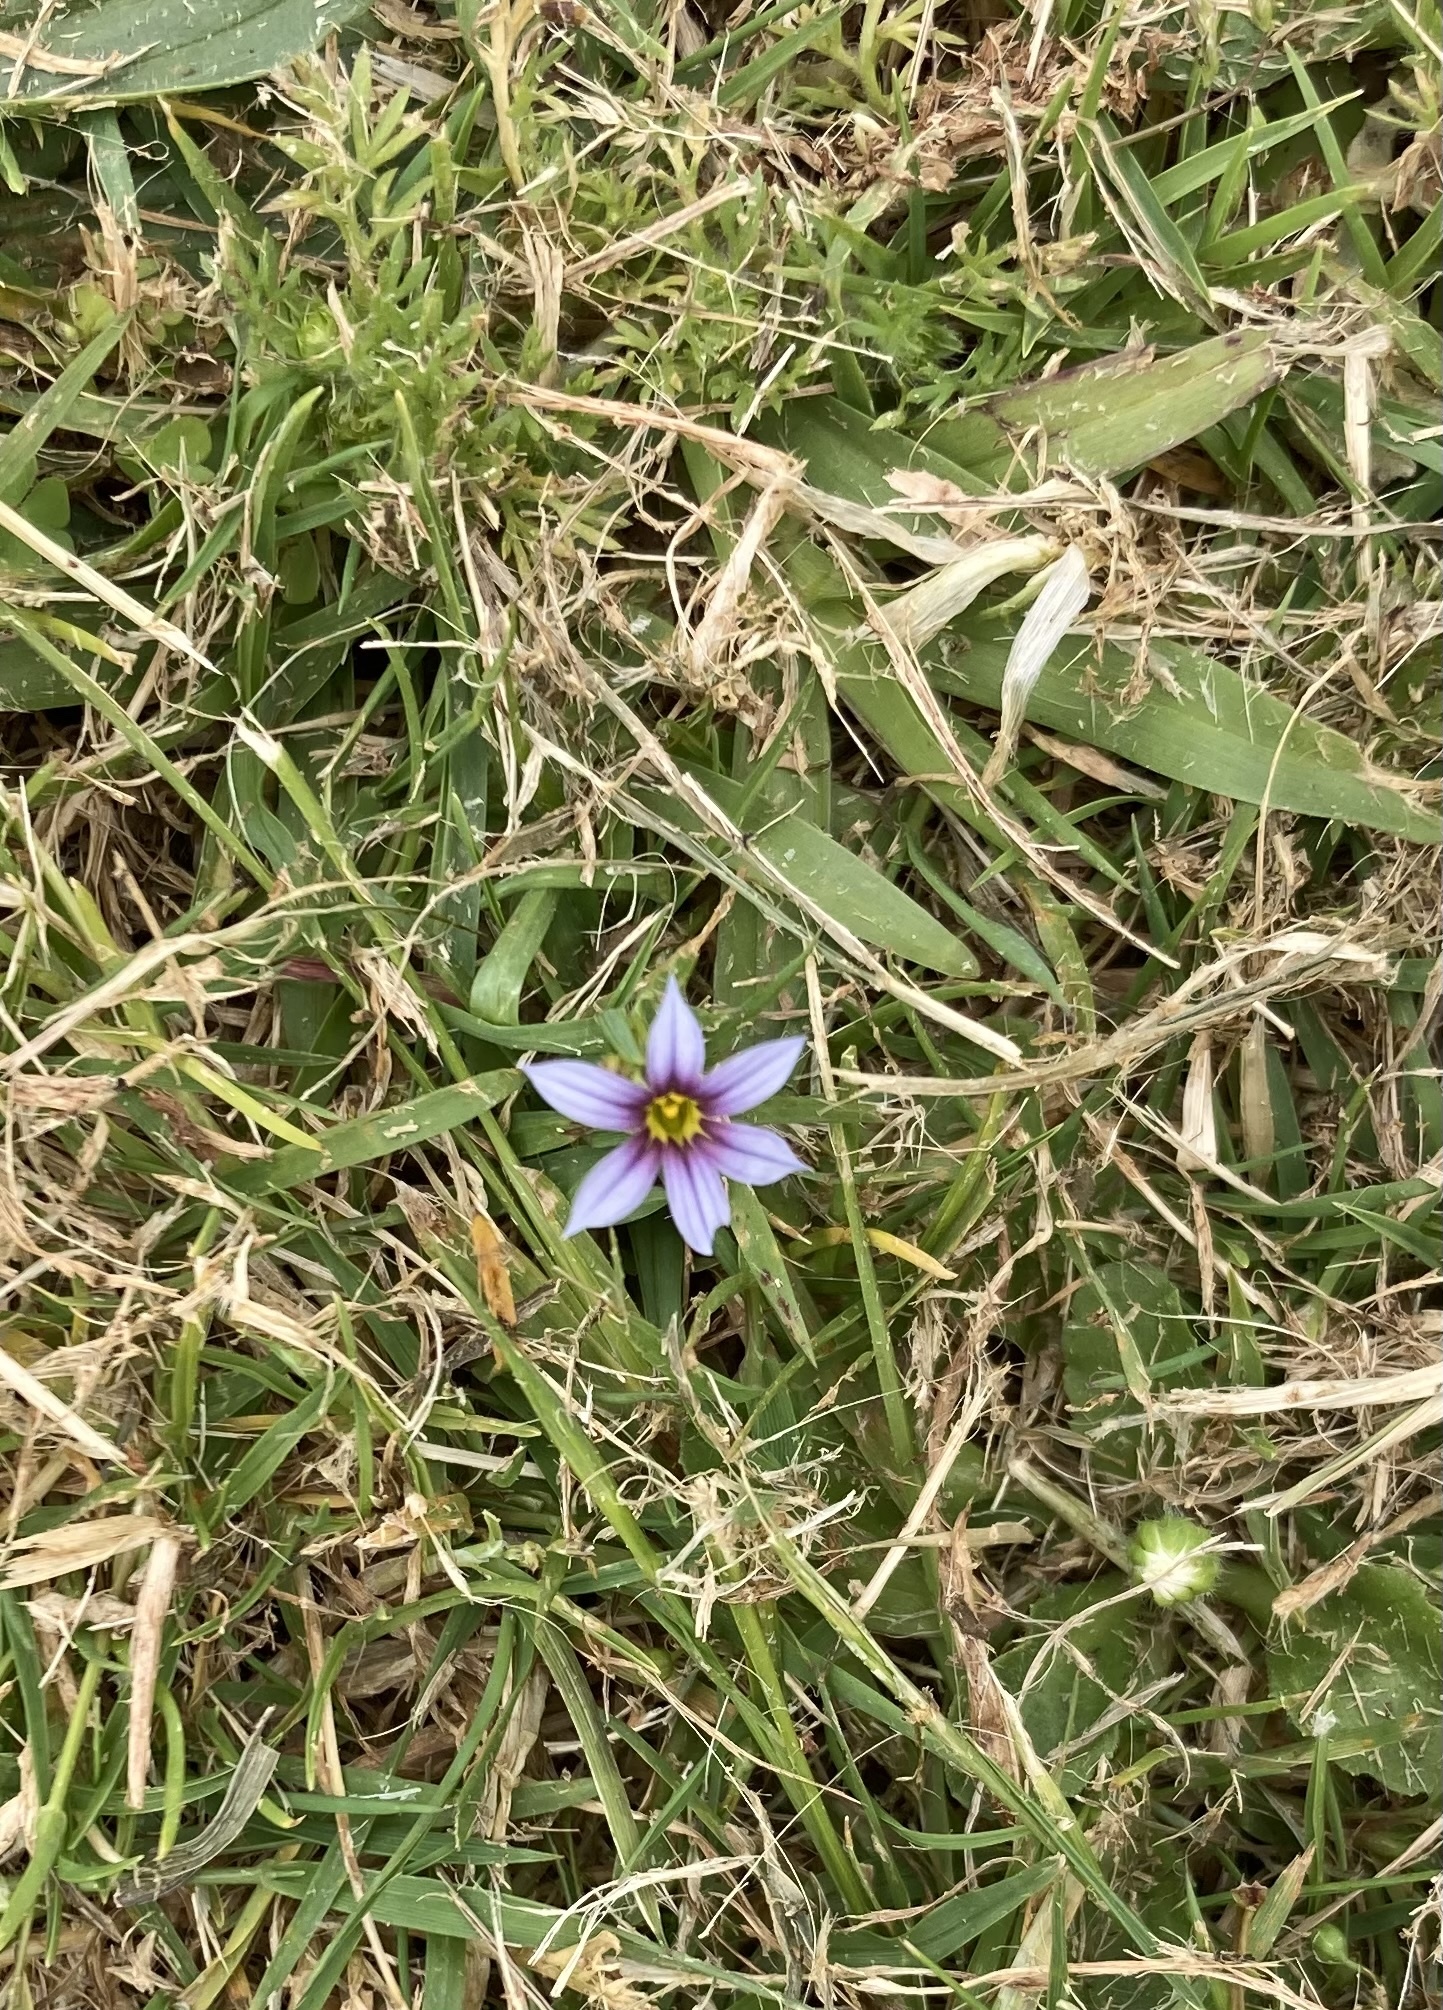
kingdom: Plantae
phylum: Tracheophyta
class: Liliopsida
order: Asparagales
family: Iridaceae
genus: Sisyrinchium
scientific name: Sisyrinchium micranthum
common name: Bermuda pigroot
